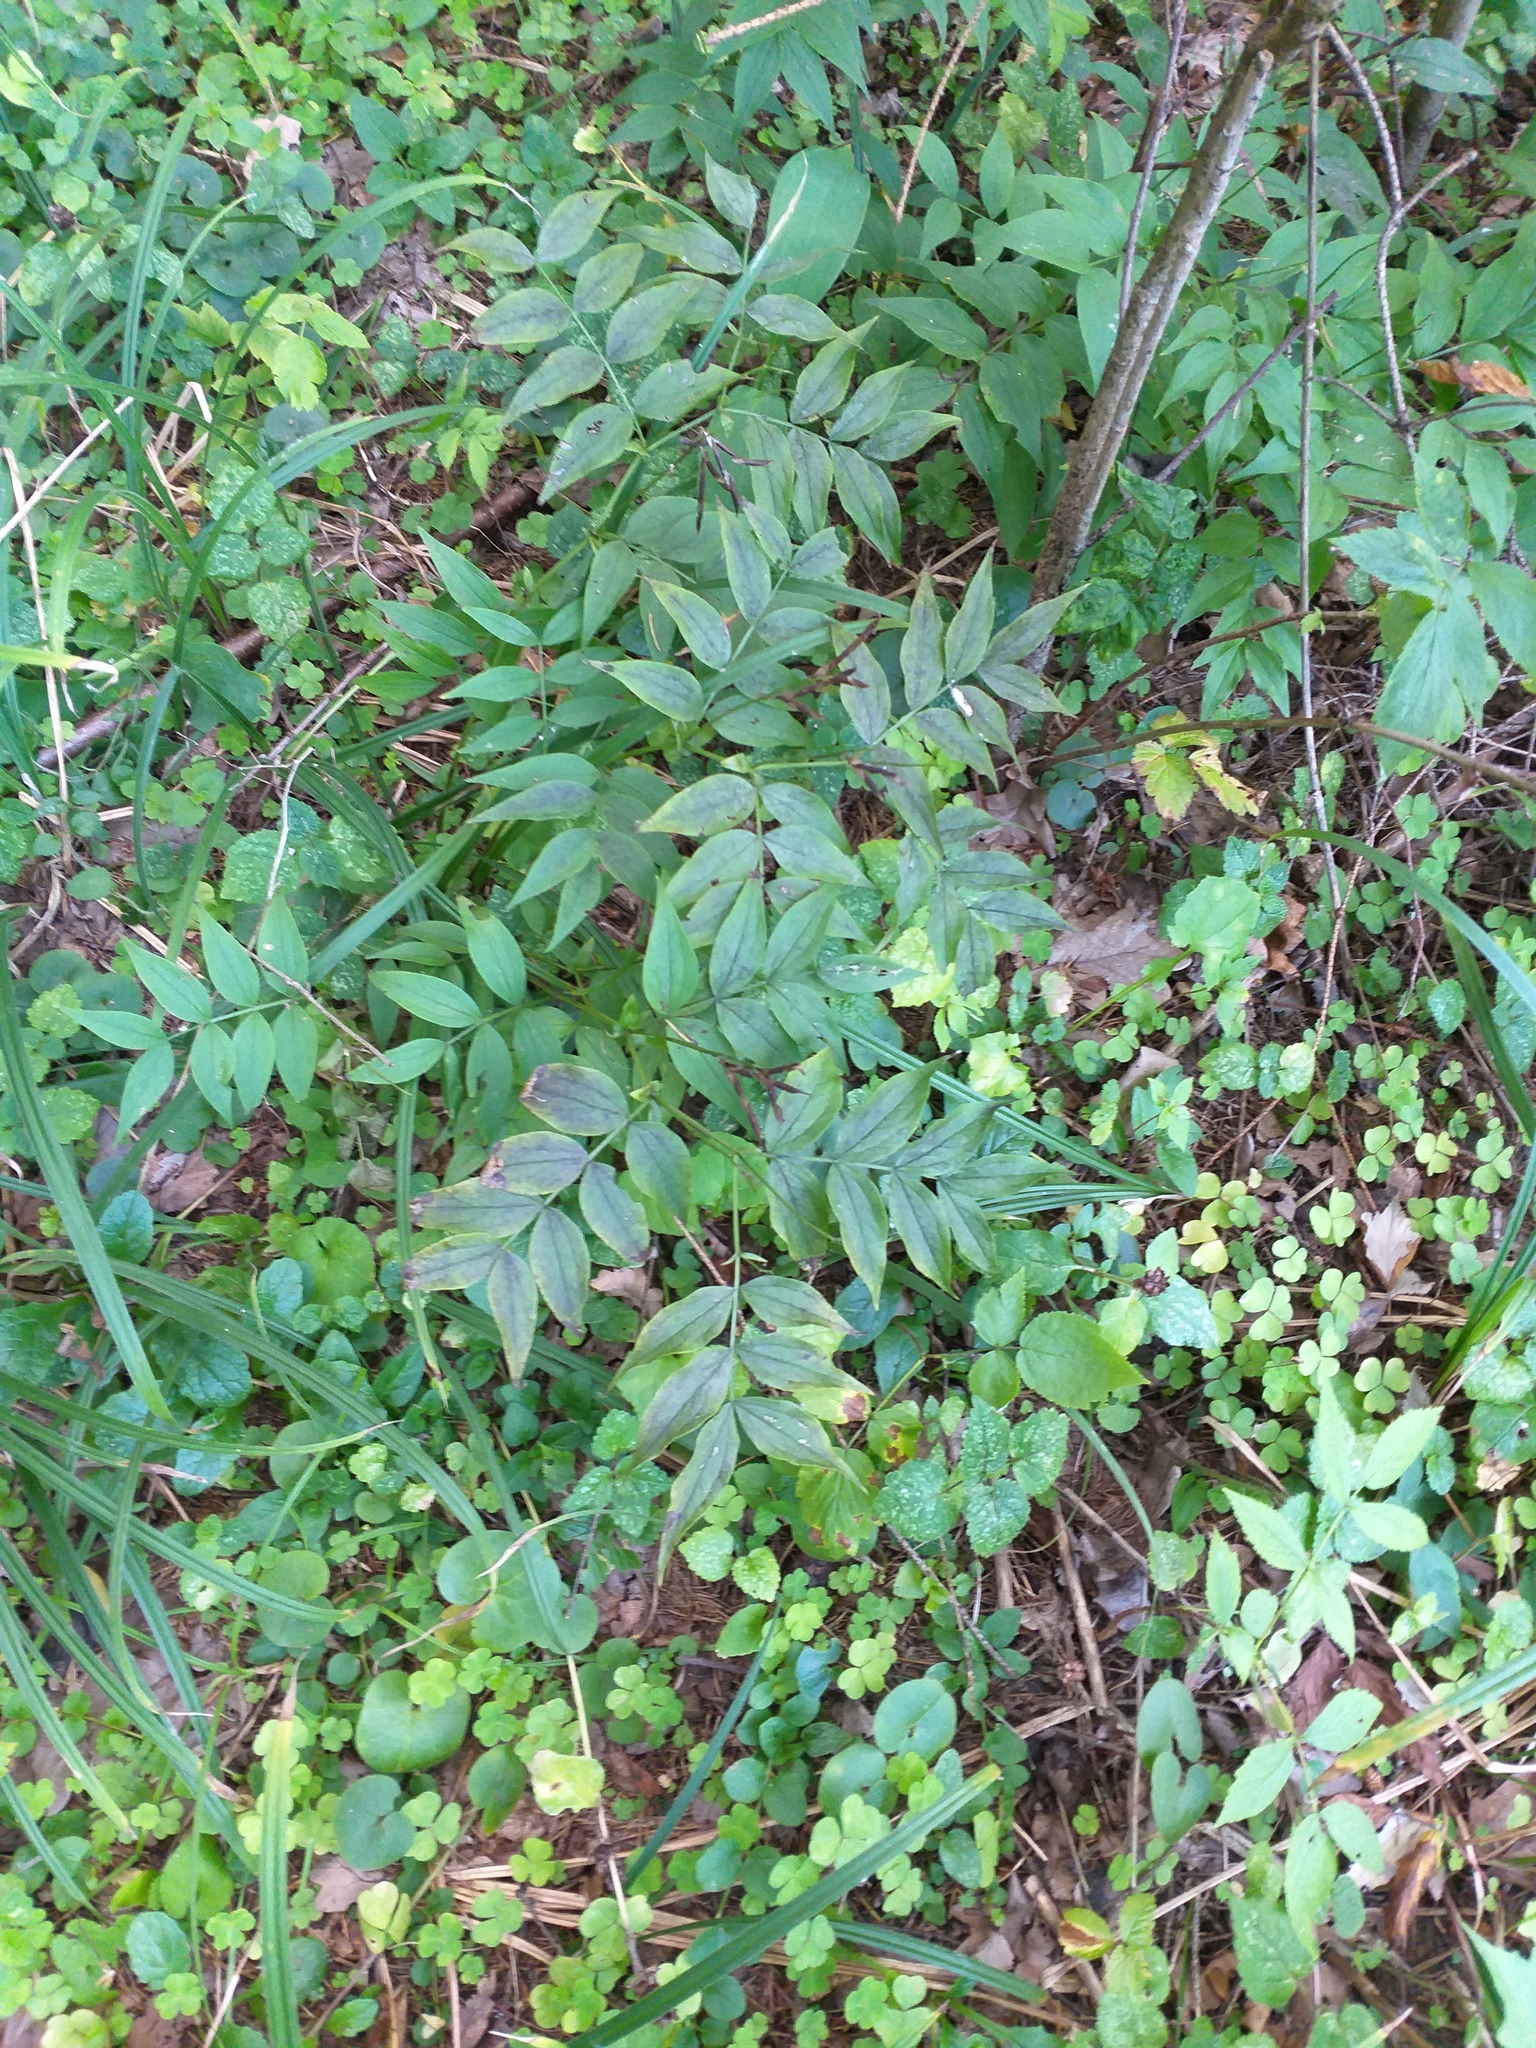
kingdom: Plantae
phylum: Tracheophyta
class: Magnoliopsida
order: Fabales
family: Fabaceae
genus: Lathyrus
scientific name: Lathyrus vernus
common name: Spring pea
